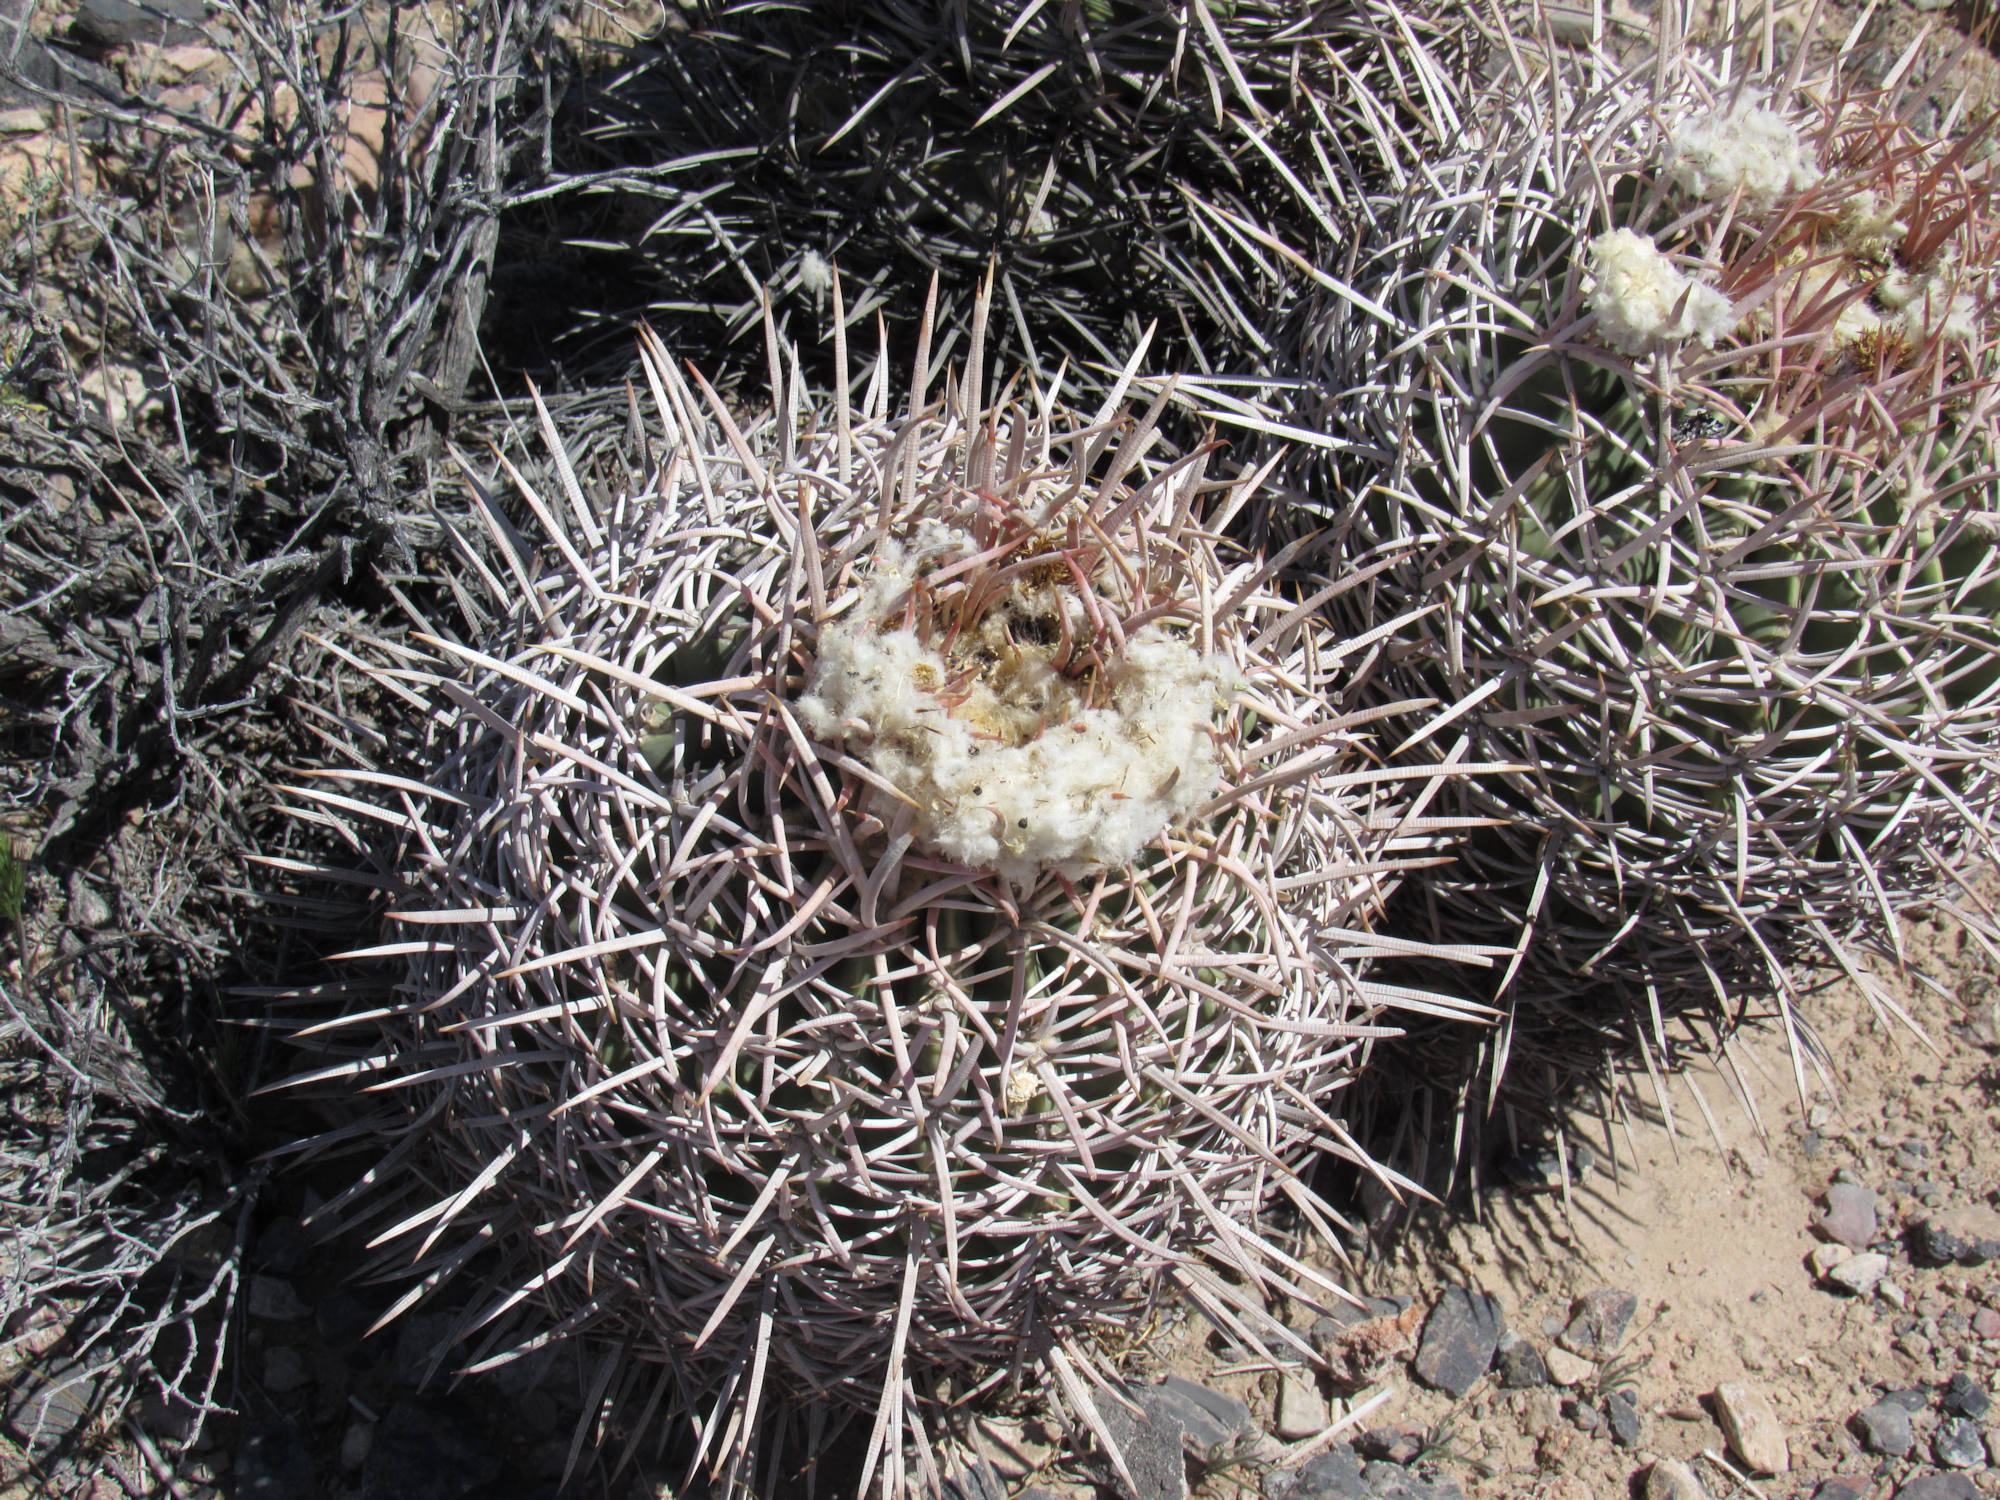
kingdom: Plantae
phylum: Tracheophyta
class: Magnoliopsida
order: Caryophyllales
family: Cactaceae
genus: Echinocactus
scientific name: Echinocactus polycephalus
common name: Cottontop cactus
